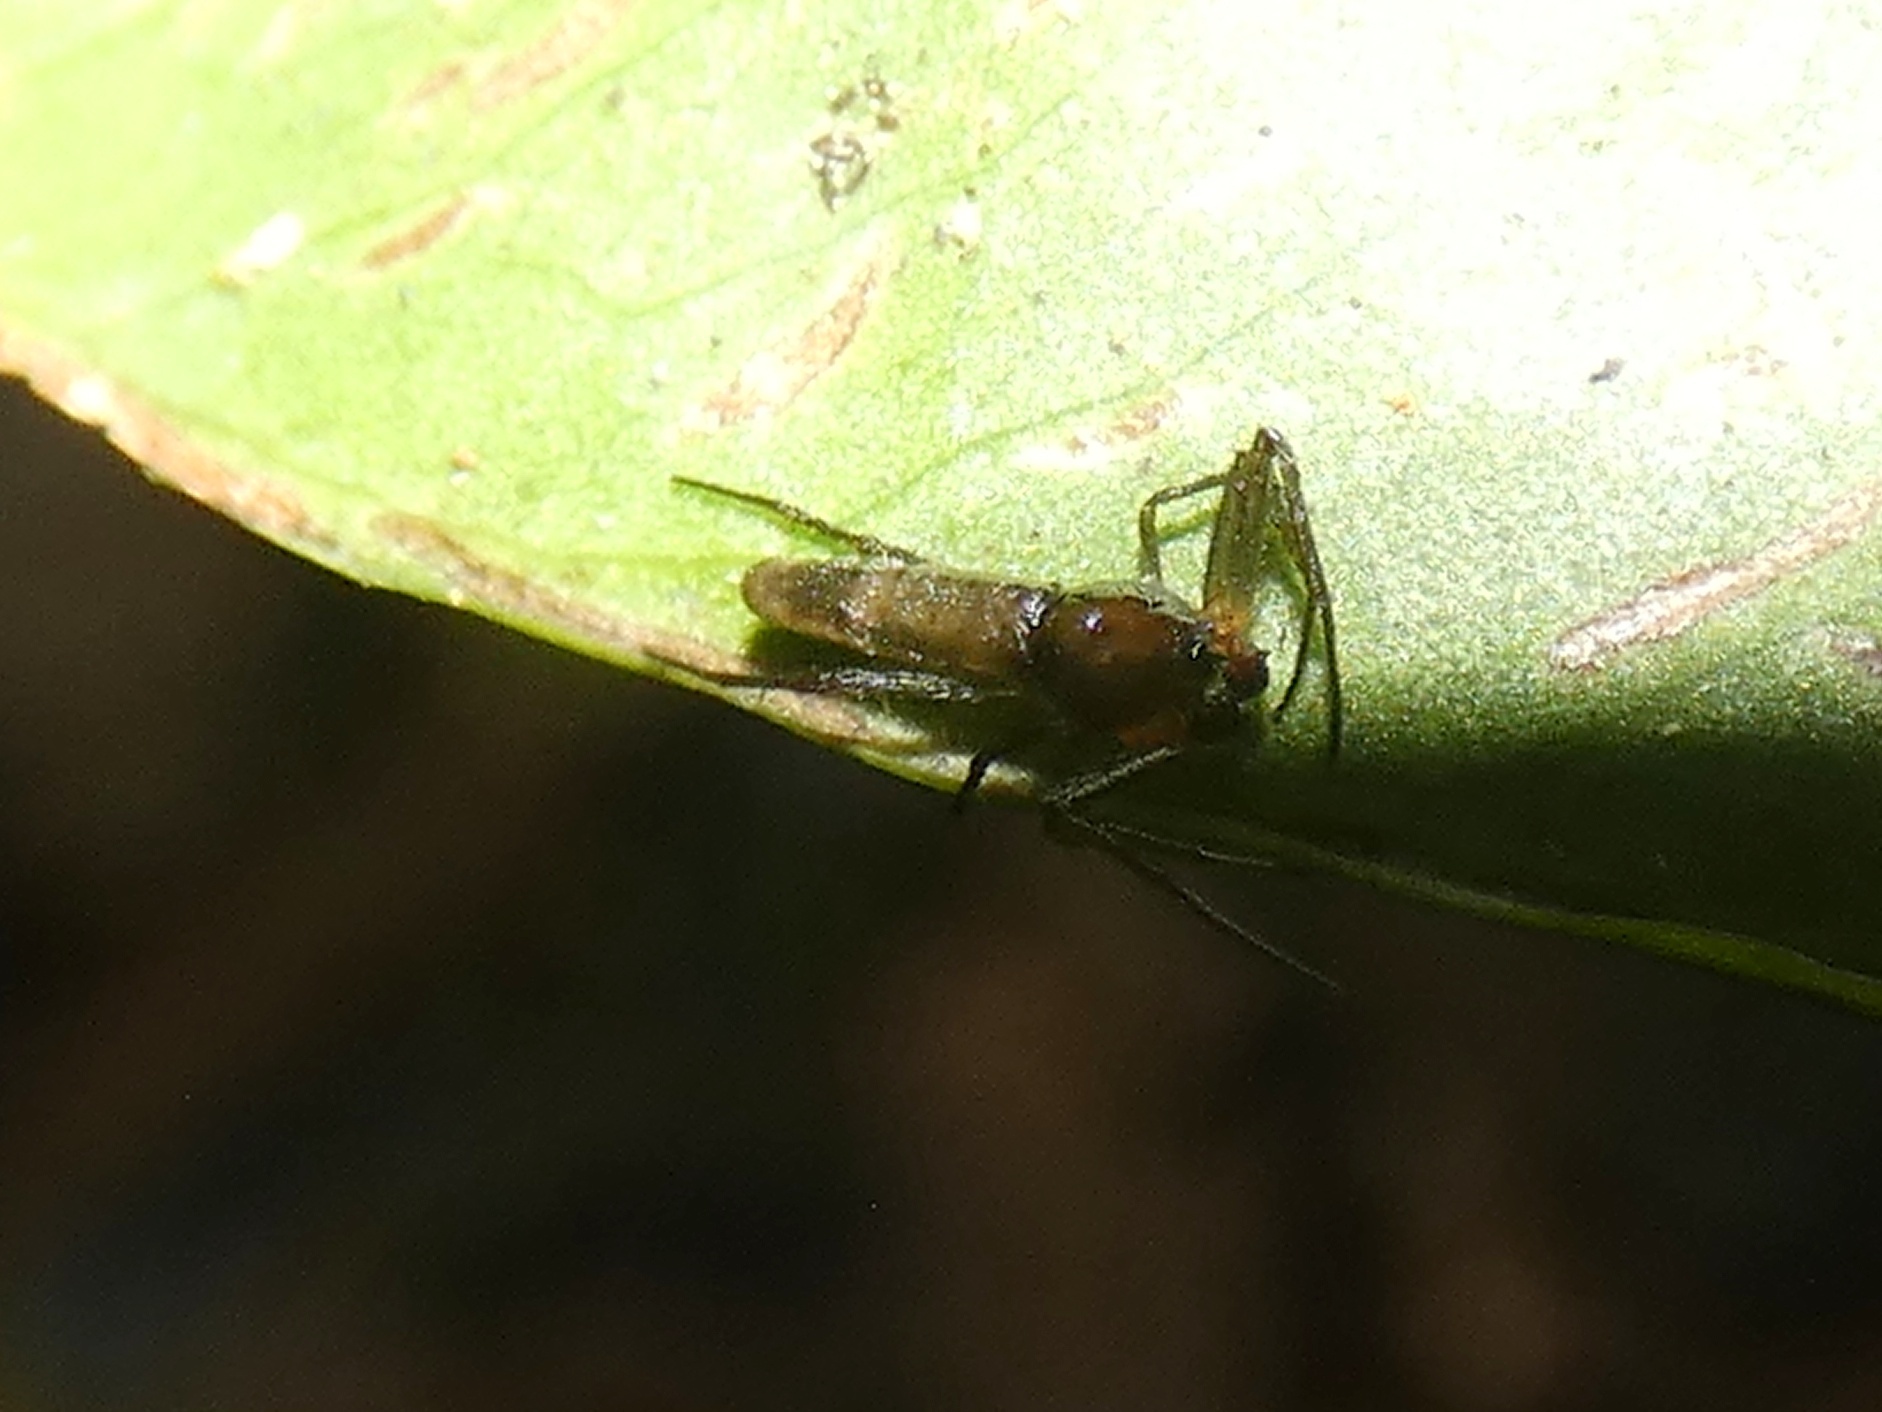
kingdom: Animalia
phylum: Arthropoda
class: Arachnida
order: Araneae
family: Araneidae
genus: Micrathena
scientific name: Micrathena triangularis
